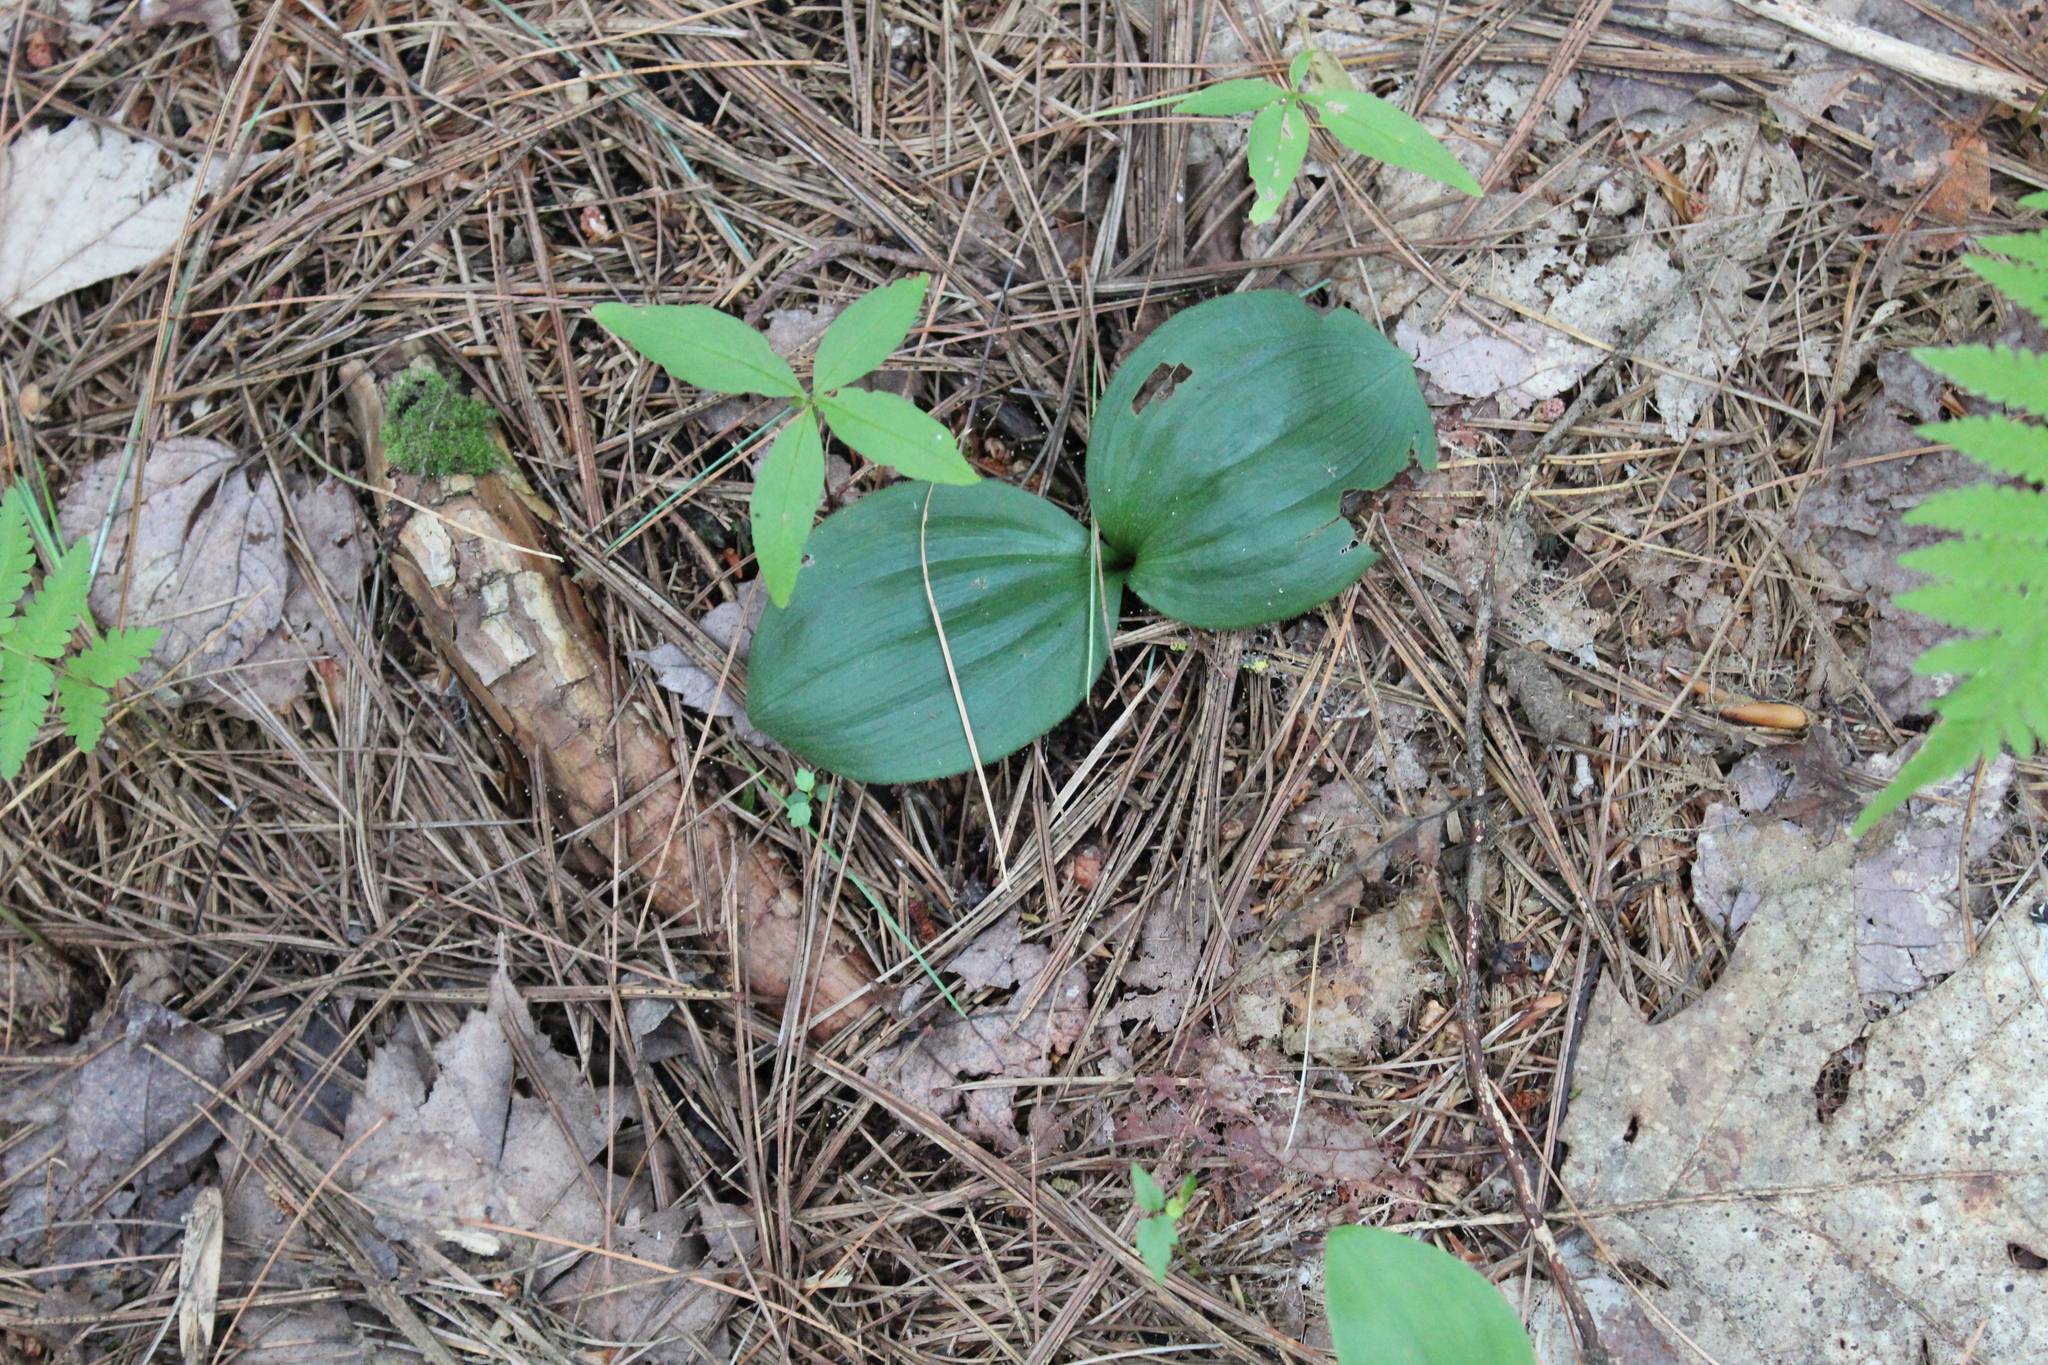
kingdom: Plantae
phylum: Tracheophyta
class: Liliopsida
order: Asparagales
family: Orchidaceae
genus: Cypripedium
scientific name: Cypripedium acaule
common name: Pink lady's-slipper
